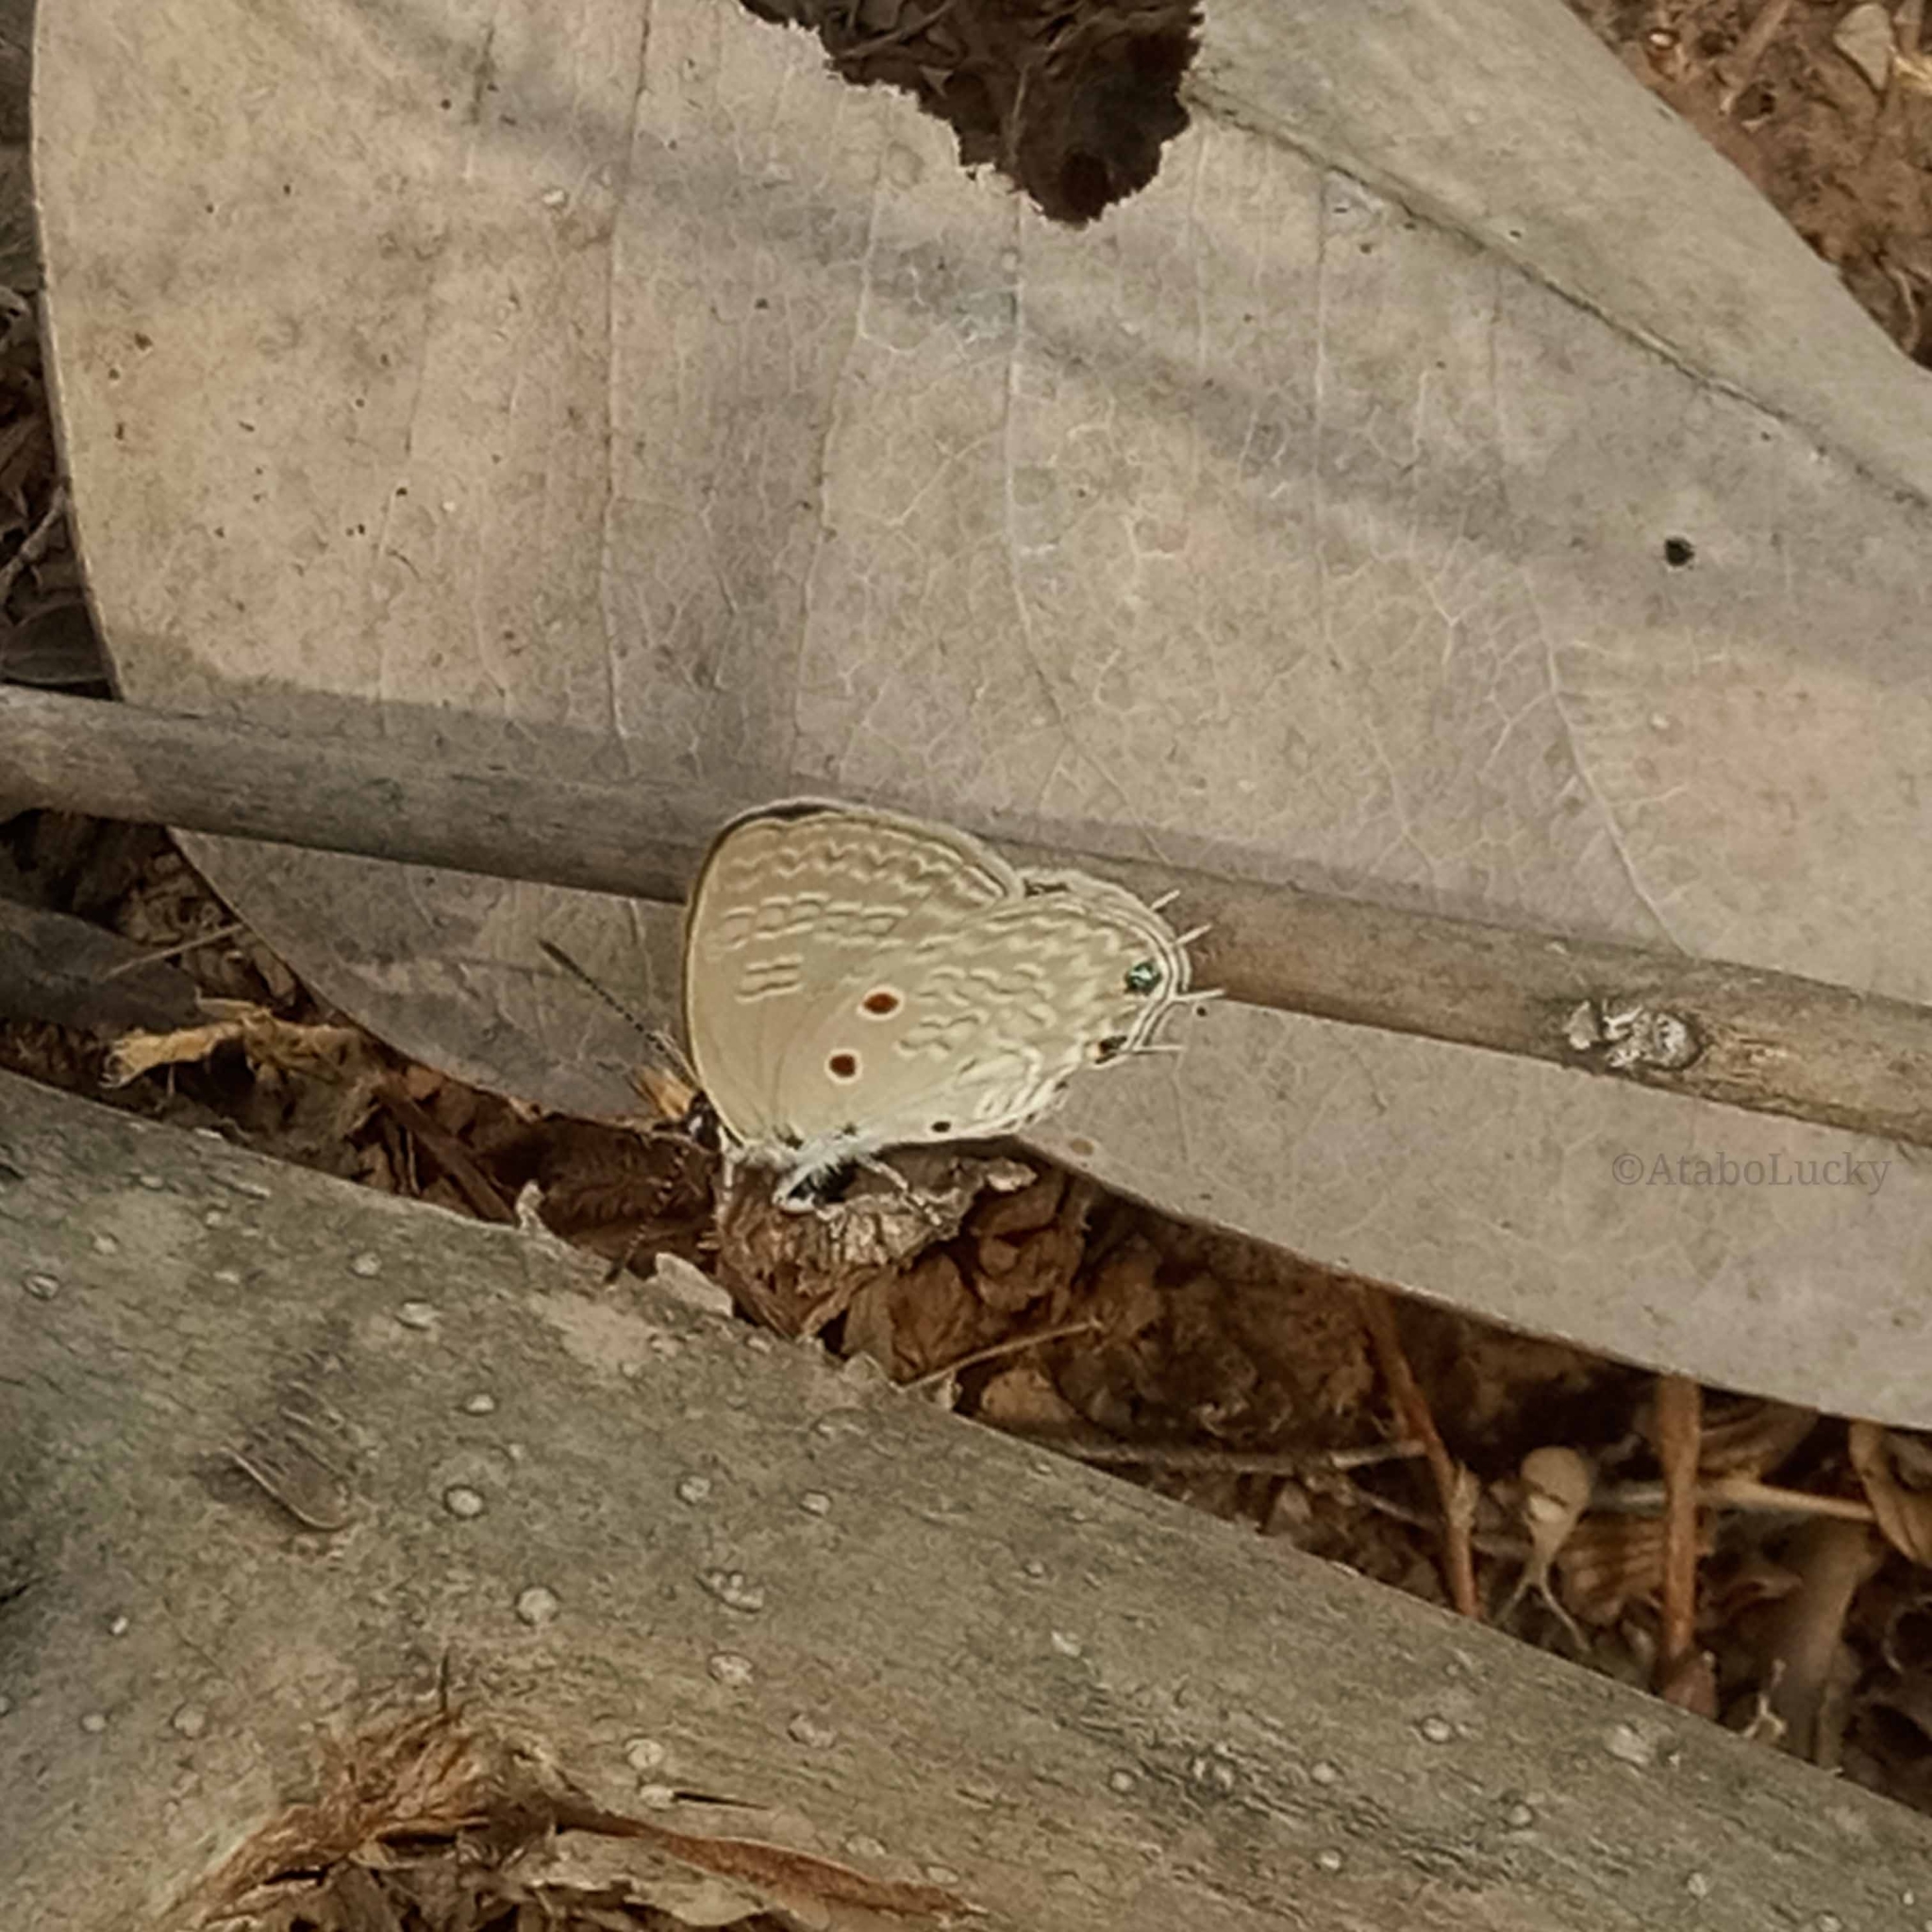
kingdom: Animalia
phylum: Arthropoda
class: Insecta
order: Lepidoptera
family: Lycaenidae
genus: Anthene
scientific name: Anthene lunulata
